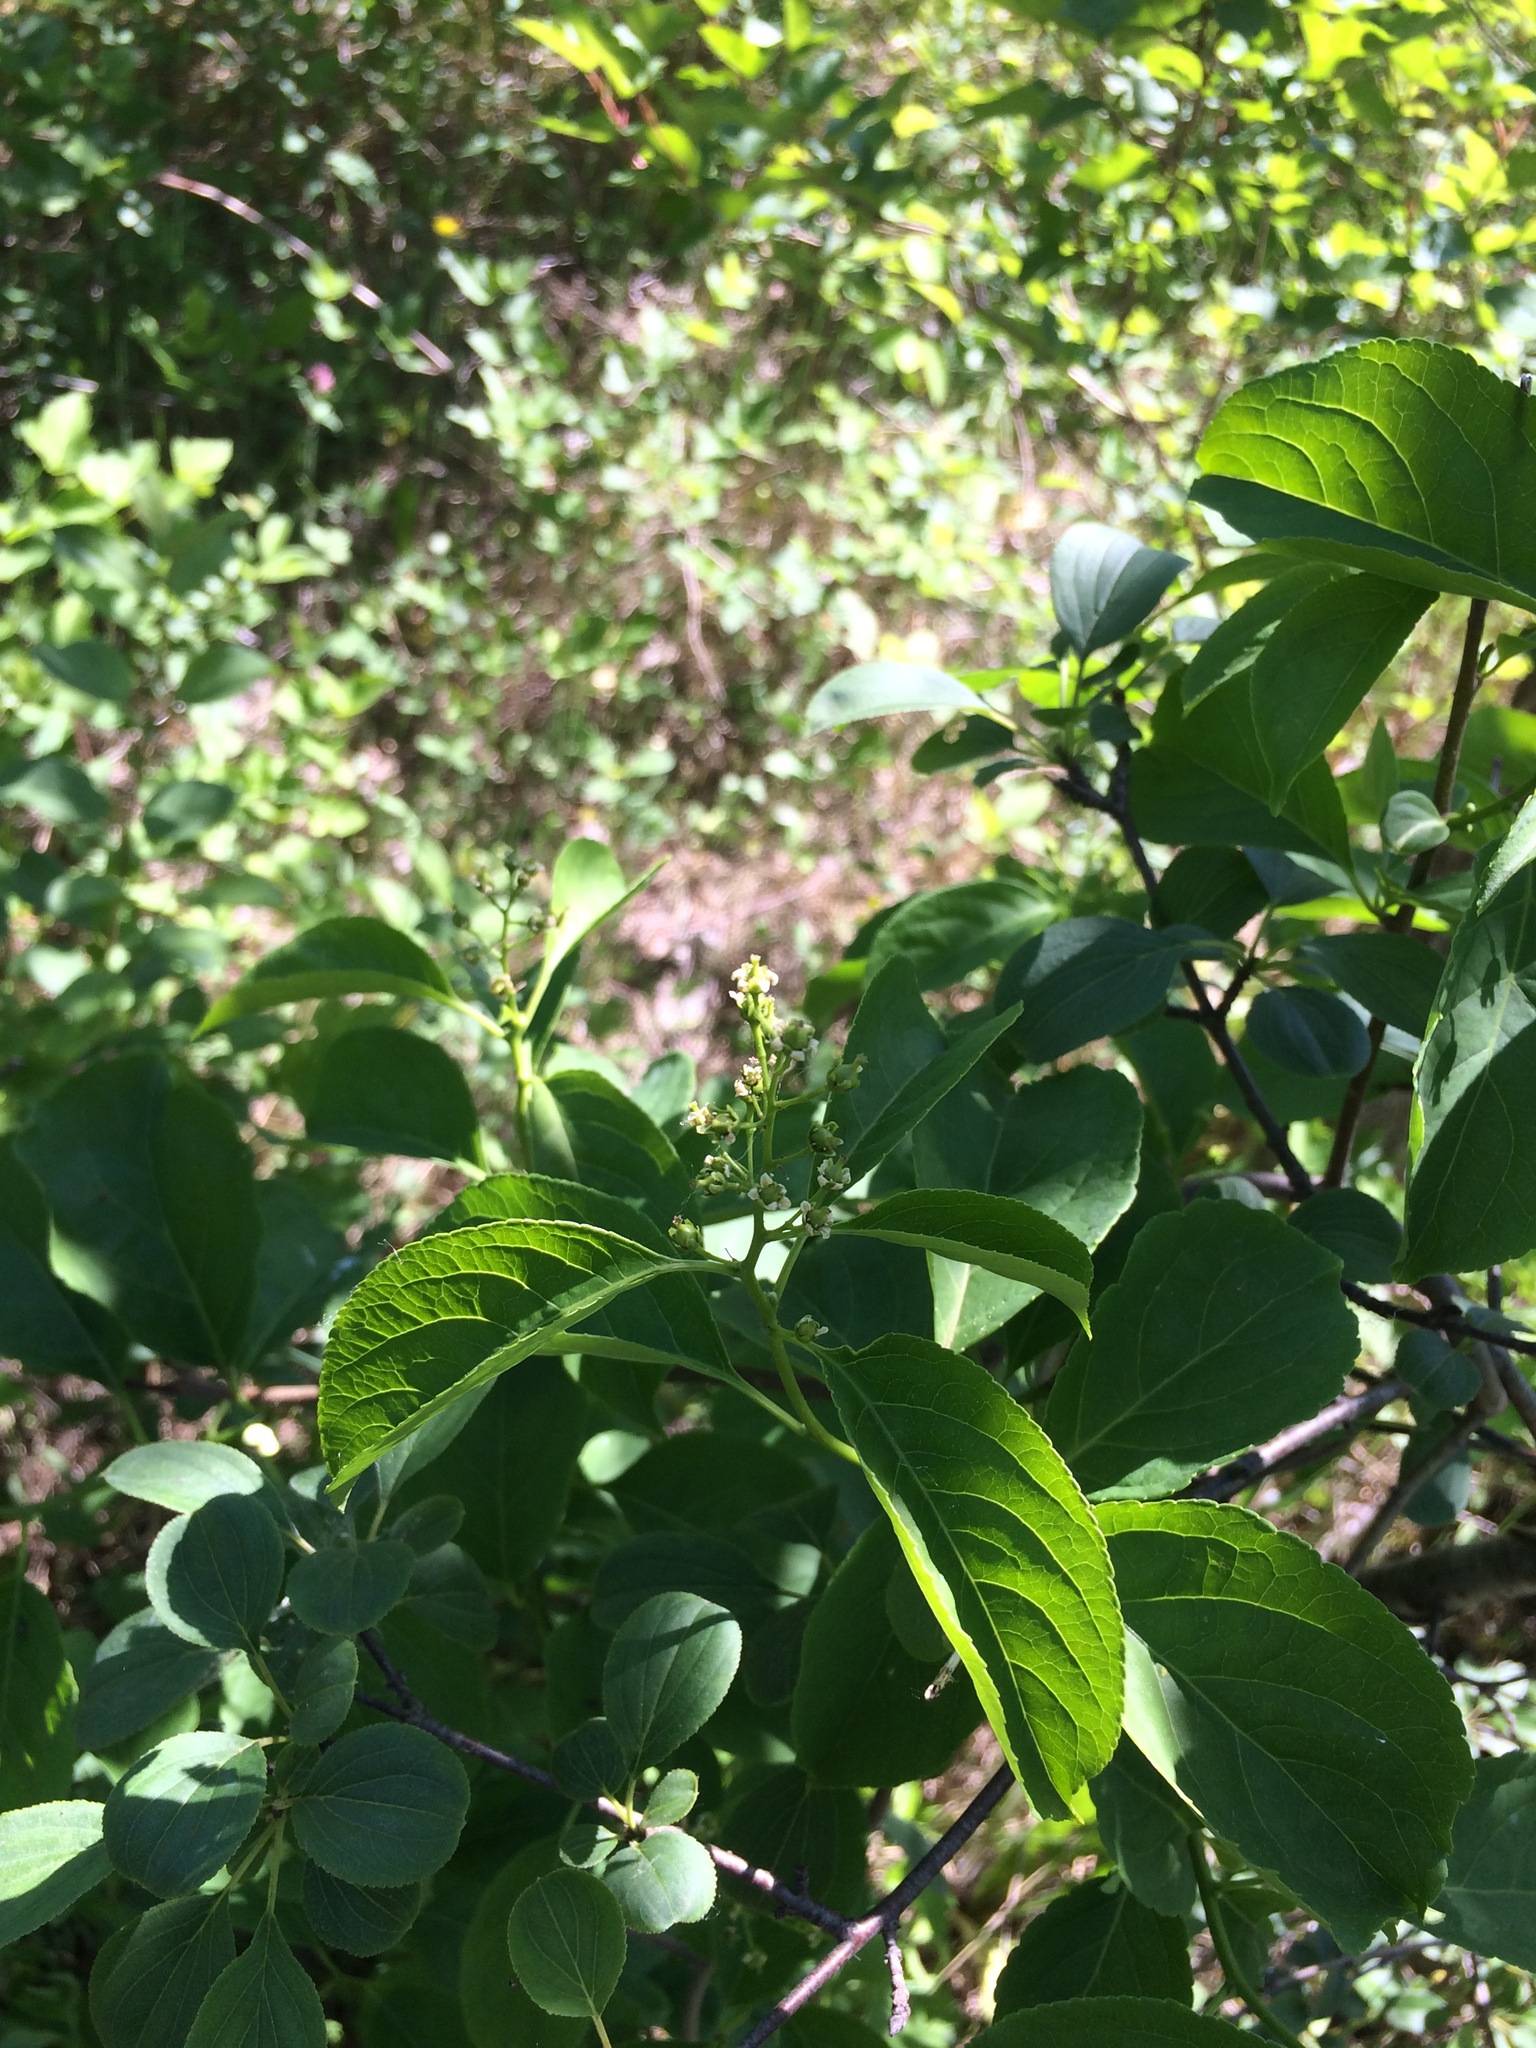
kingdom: Plantae
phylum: Tracheophyta
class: Magnoliopsida
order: Celastrales
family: Celastraceae
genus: Celastrus
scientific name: Celastrus scandens
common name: American bittersweet
